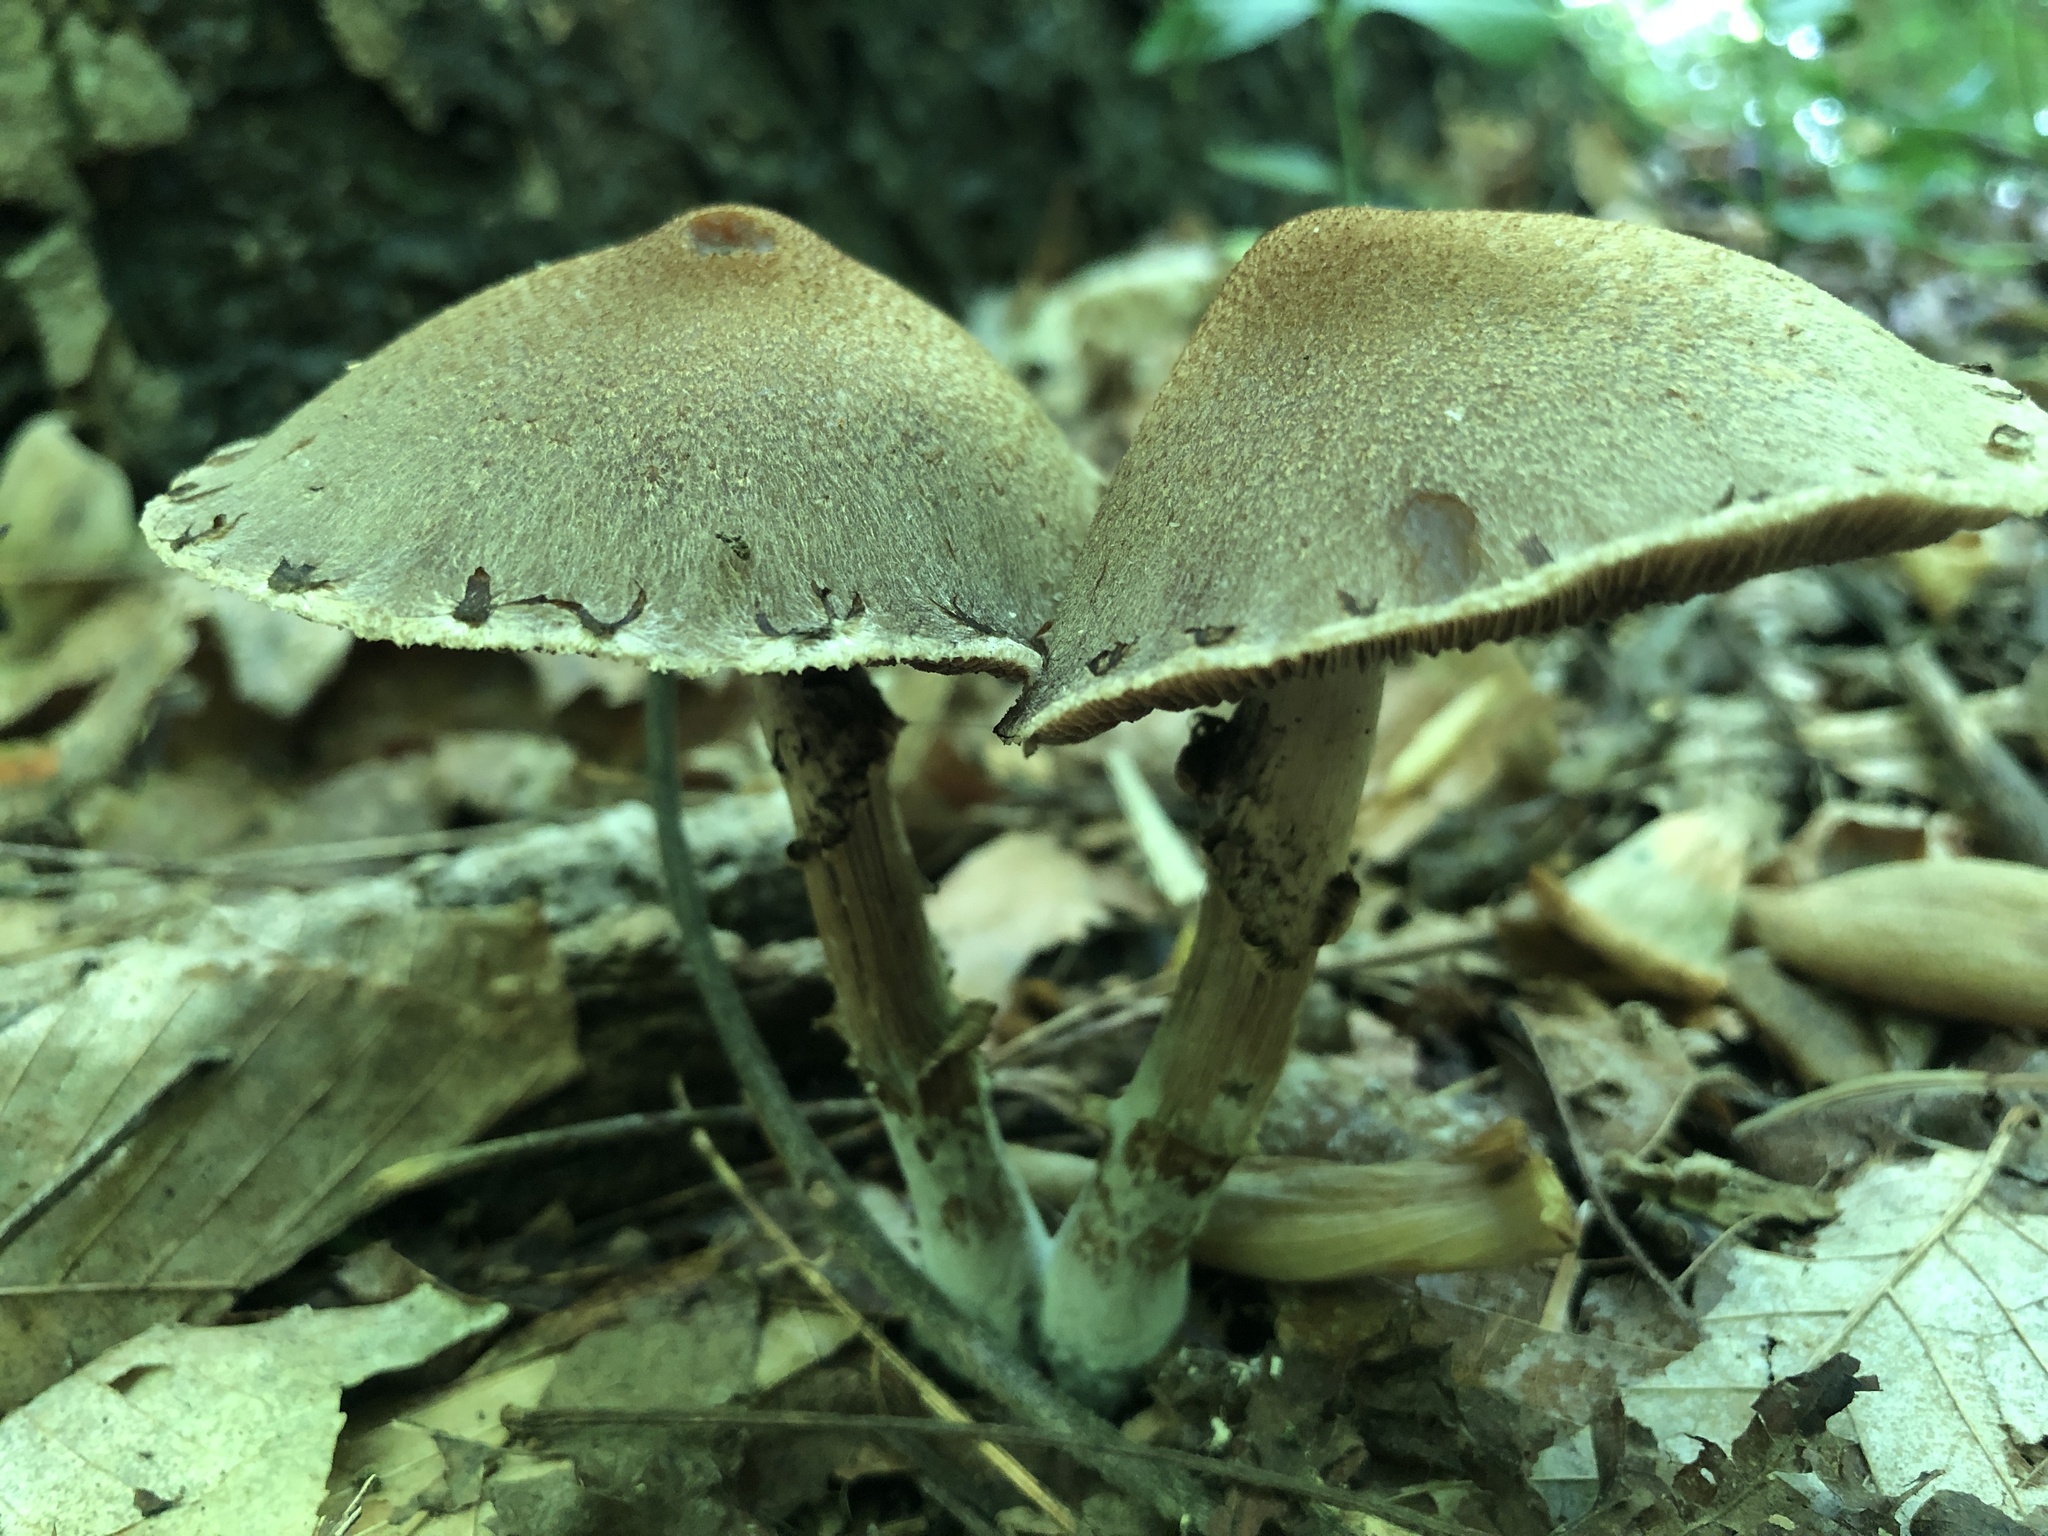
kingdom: Fungi
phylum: Basidiomycota
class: Agaricomycetes
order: Agaricales
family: Psathyrellaceae
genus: Lacrymaria
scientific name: Lacrymaria lacrymabunda
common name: Weeping widow
